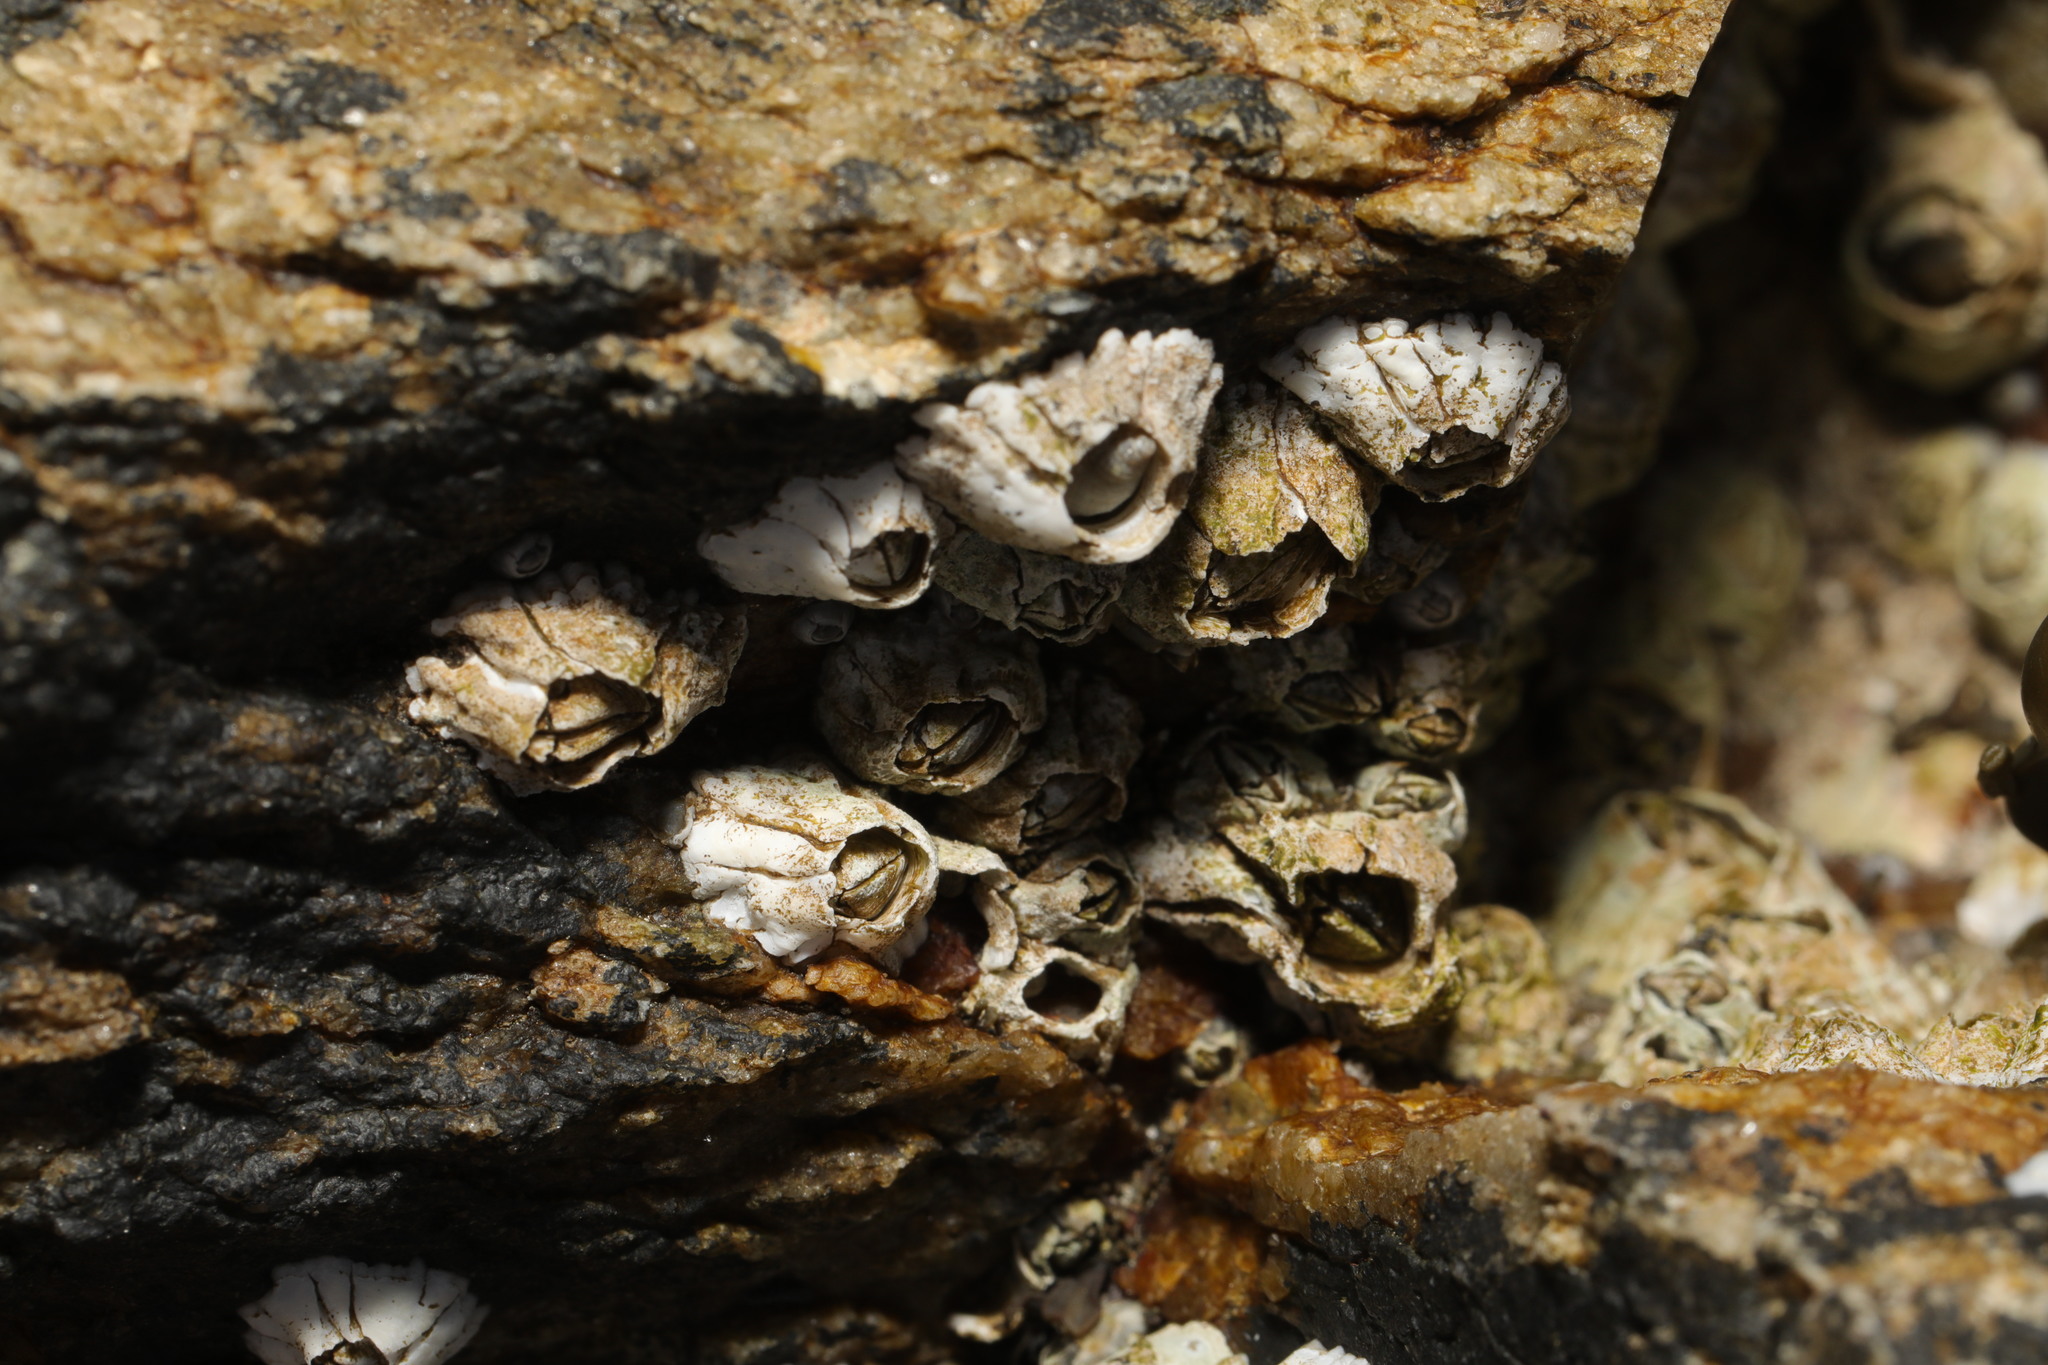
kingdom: Animalia
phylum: Arthropoda
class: Maxillopoda
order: Sessilia
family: Archaeobalanidae
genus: Semibalanus
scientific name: Semibalanus balanoides
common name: Acorn barnacle
